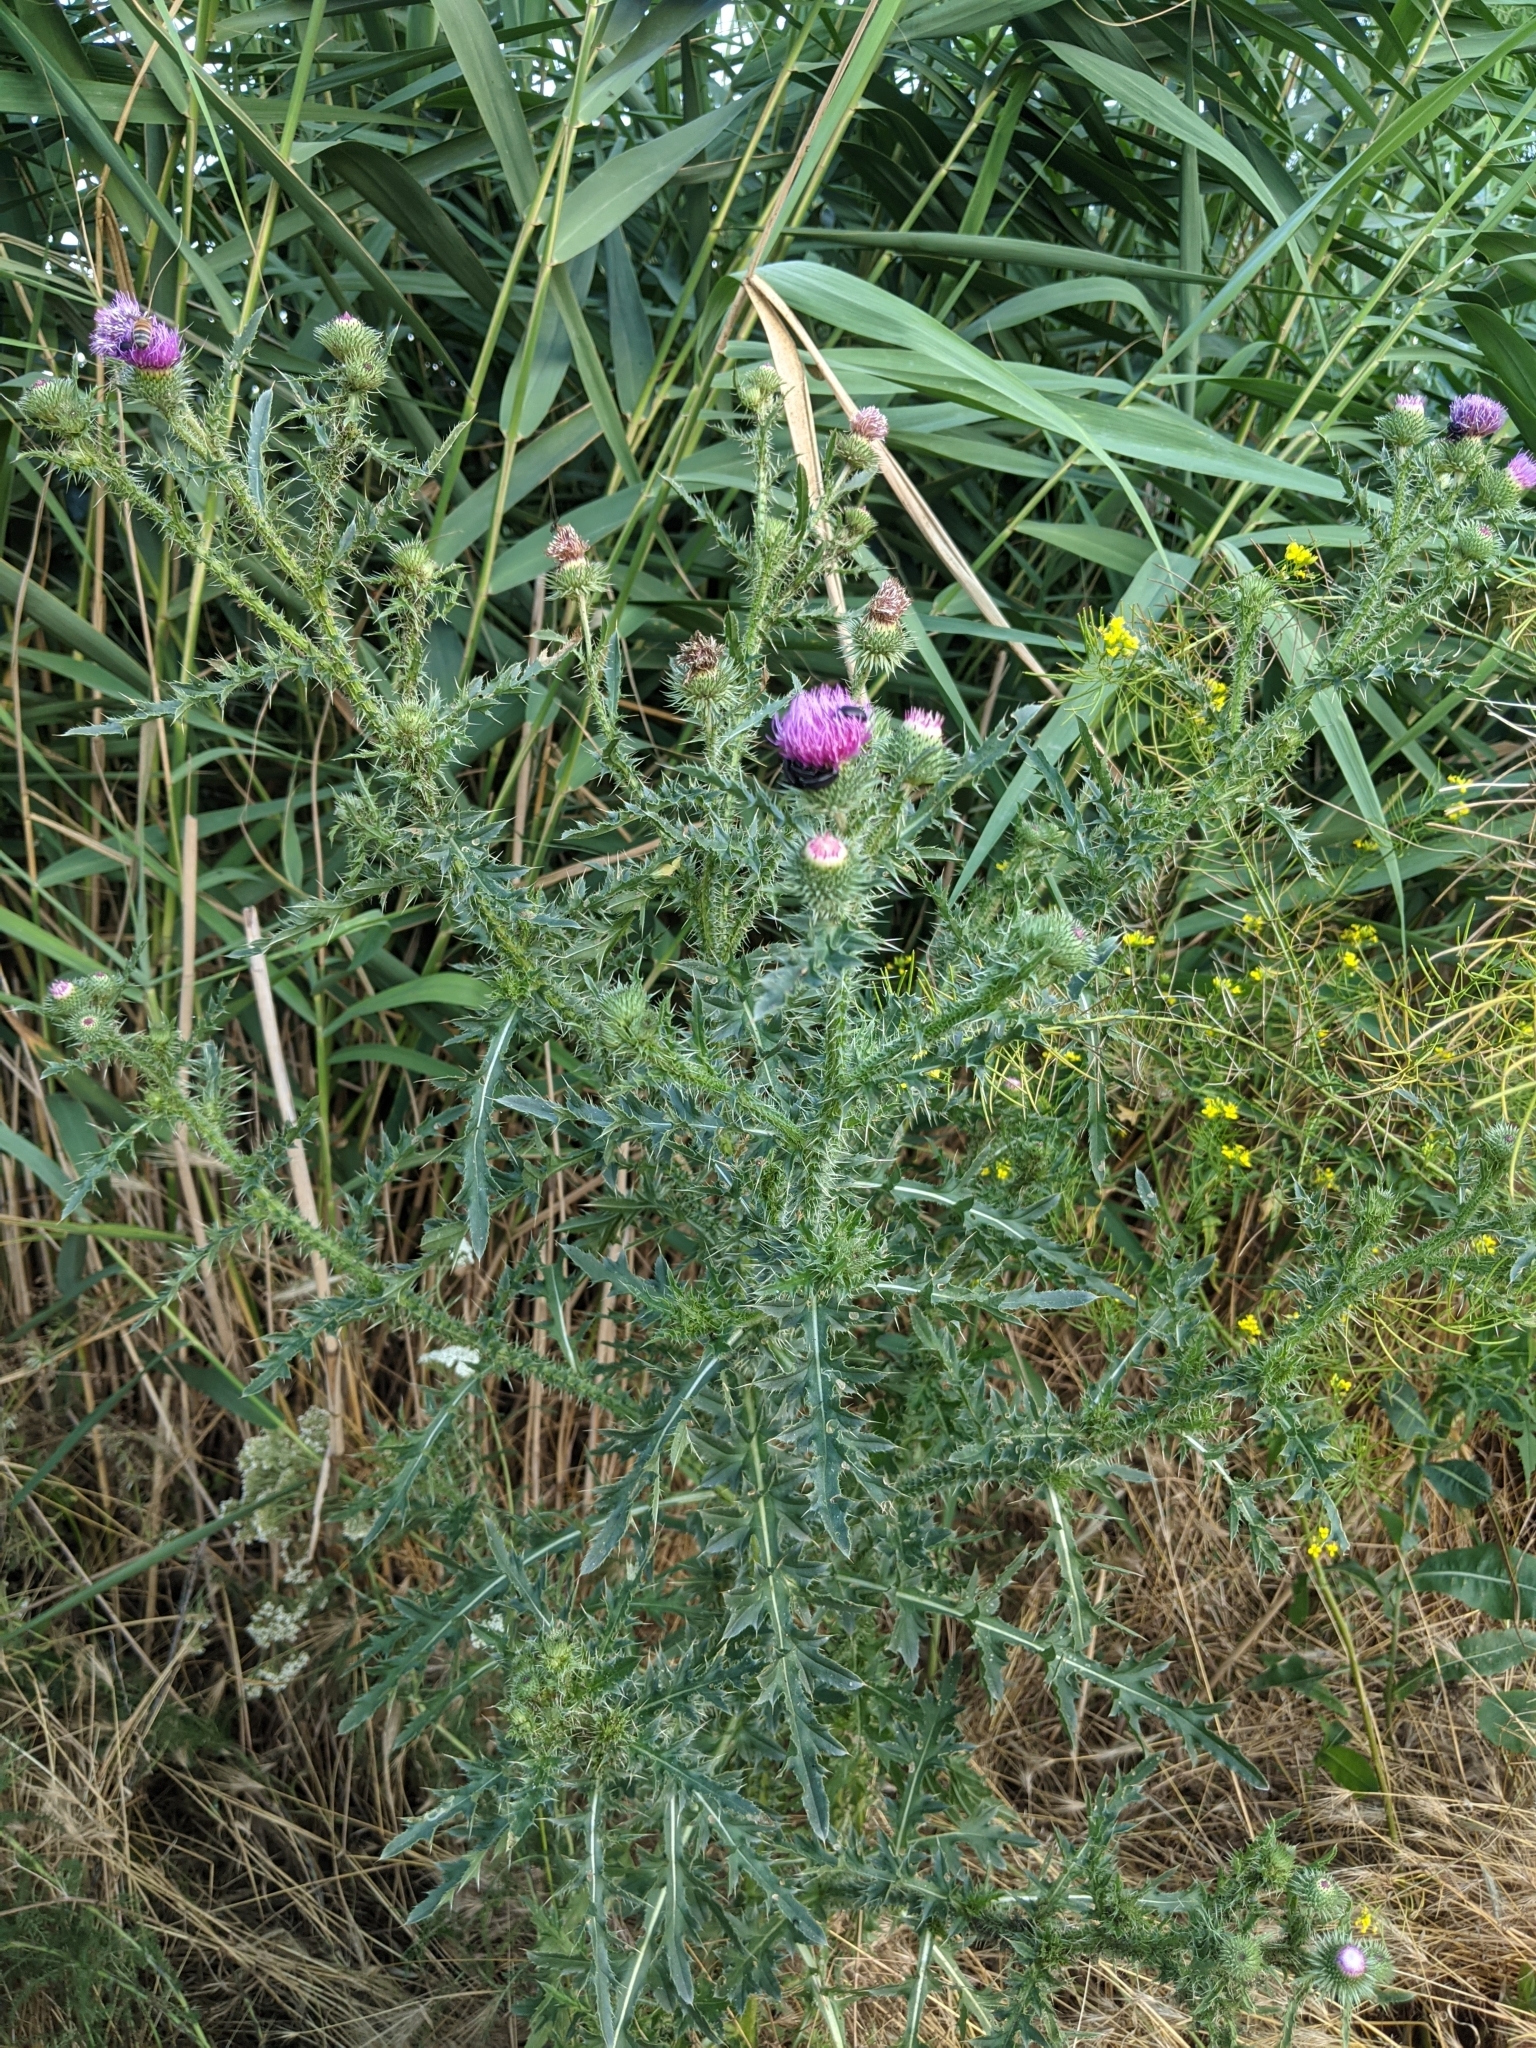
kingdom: Plantae
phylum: Tracheophyta
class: Magnoliopsida
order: Asterales
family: Asteraceae
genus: Carduus
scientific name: Carduus acanthoides
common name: Plumeless thistle
